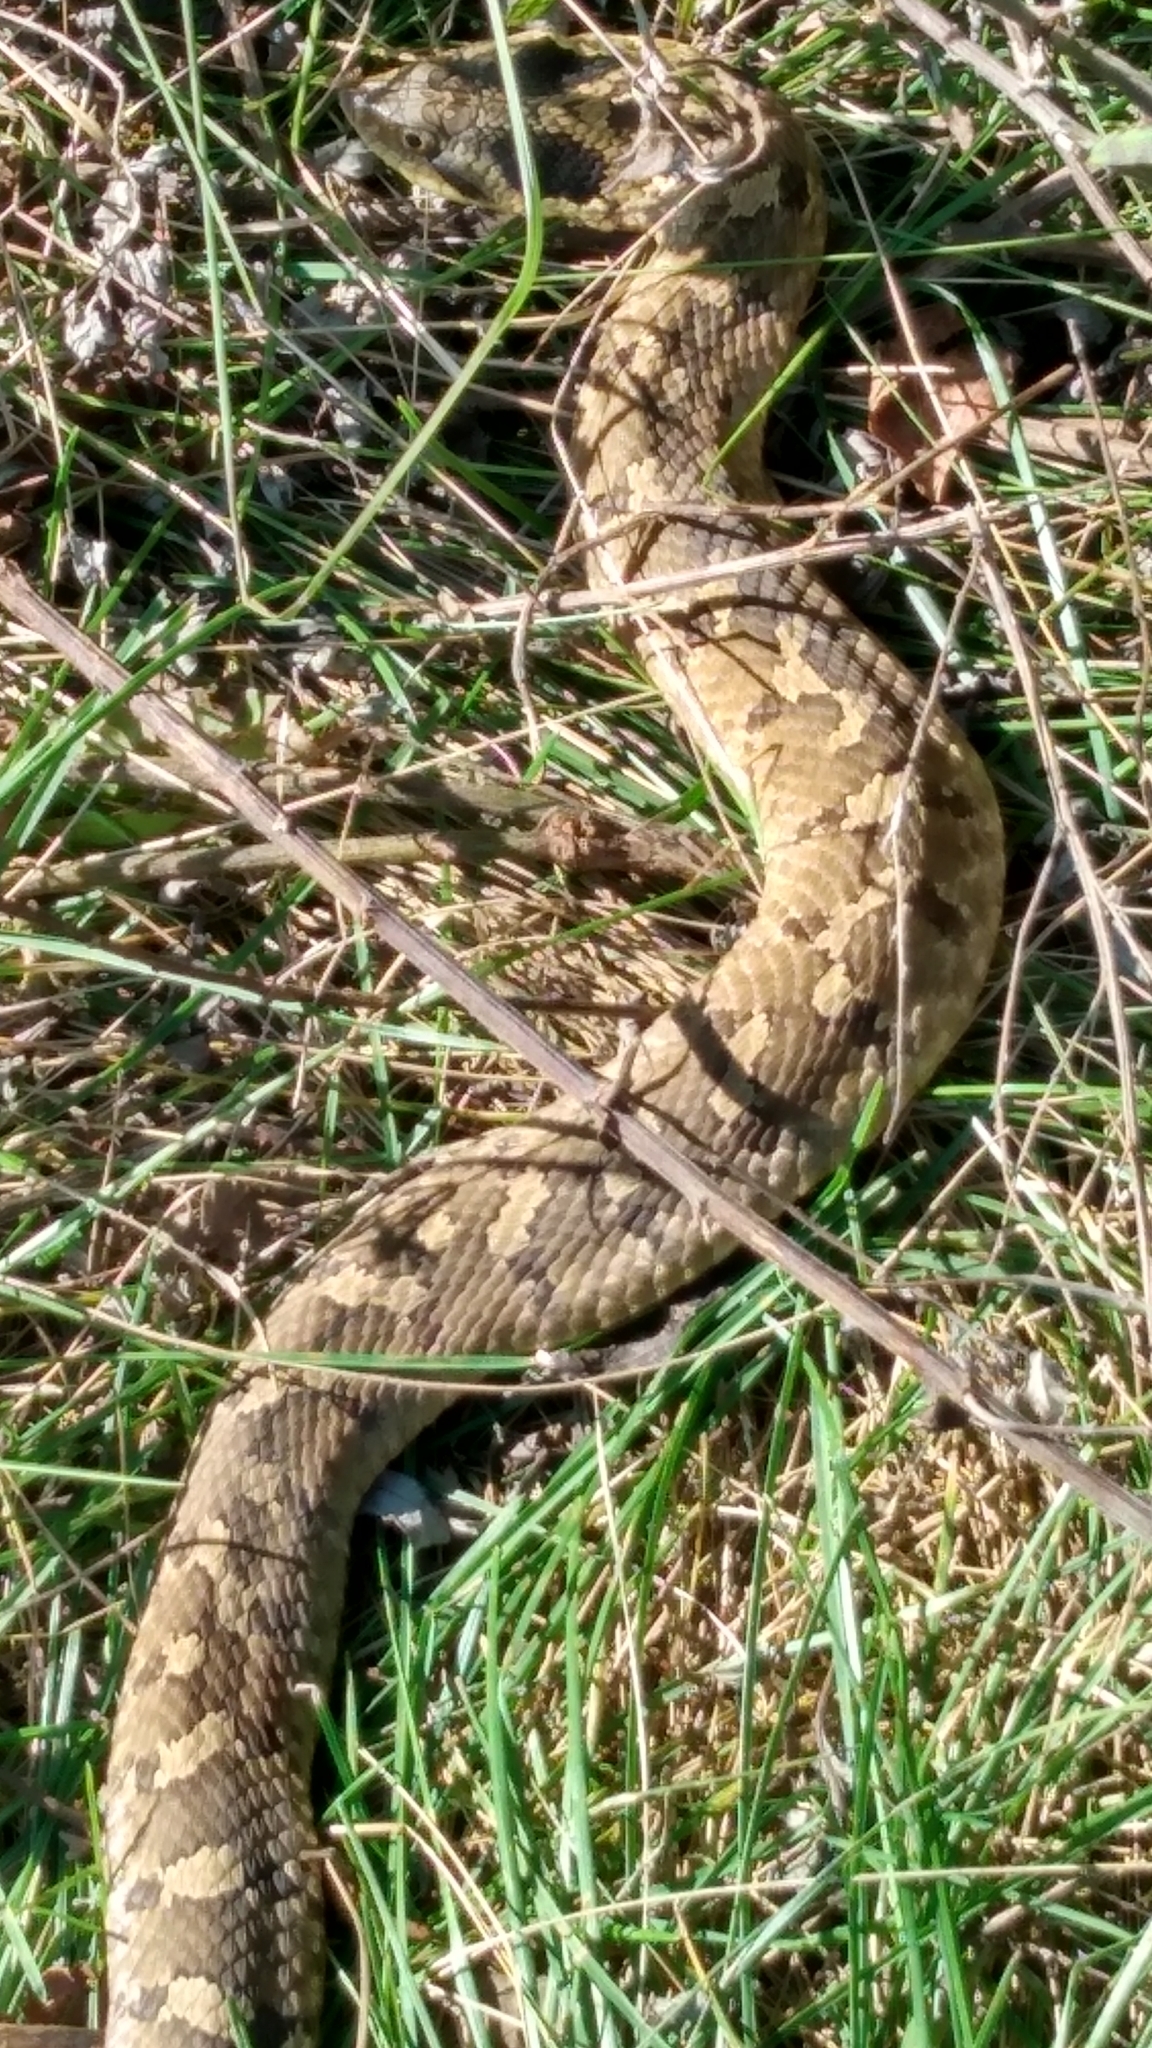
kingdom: Animalia
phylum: Chordata
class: Squamata
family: Colubridae
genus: Heterodon
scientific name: Heterodon platirhinos
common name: Eastern hognose snake
